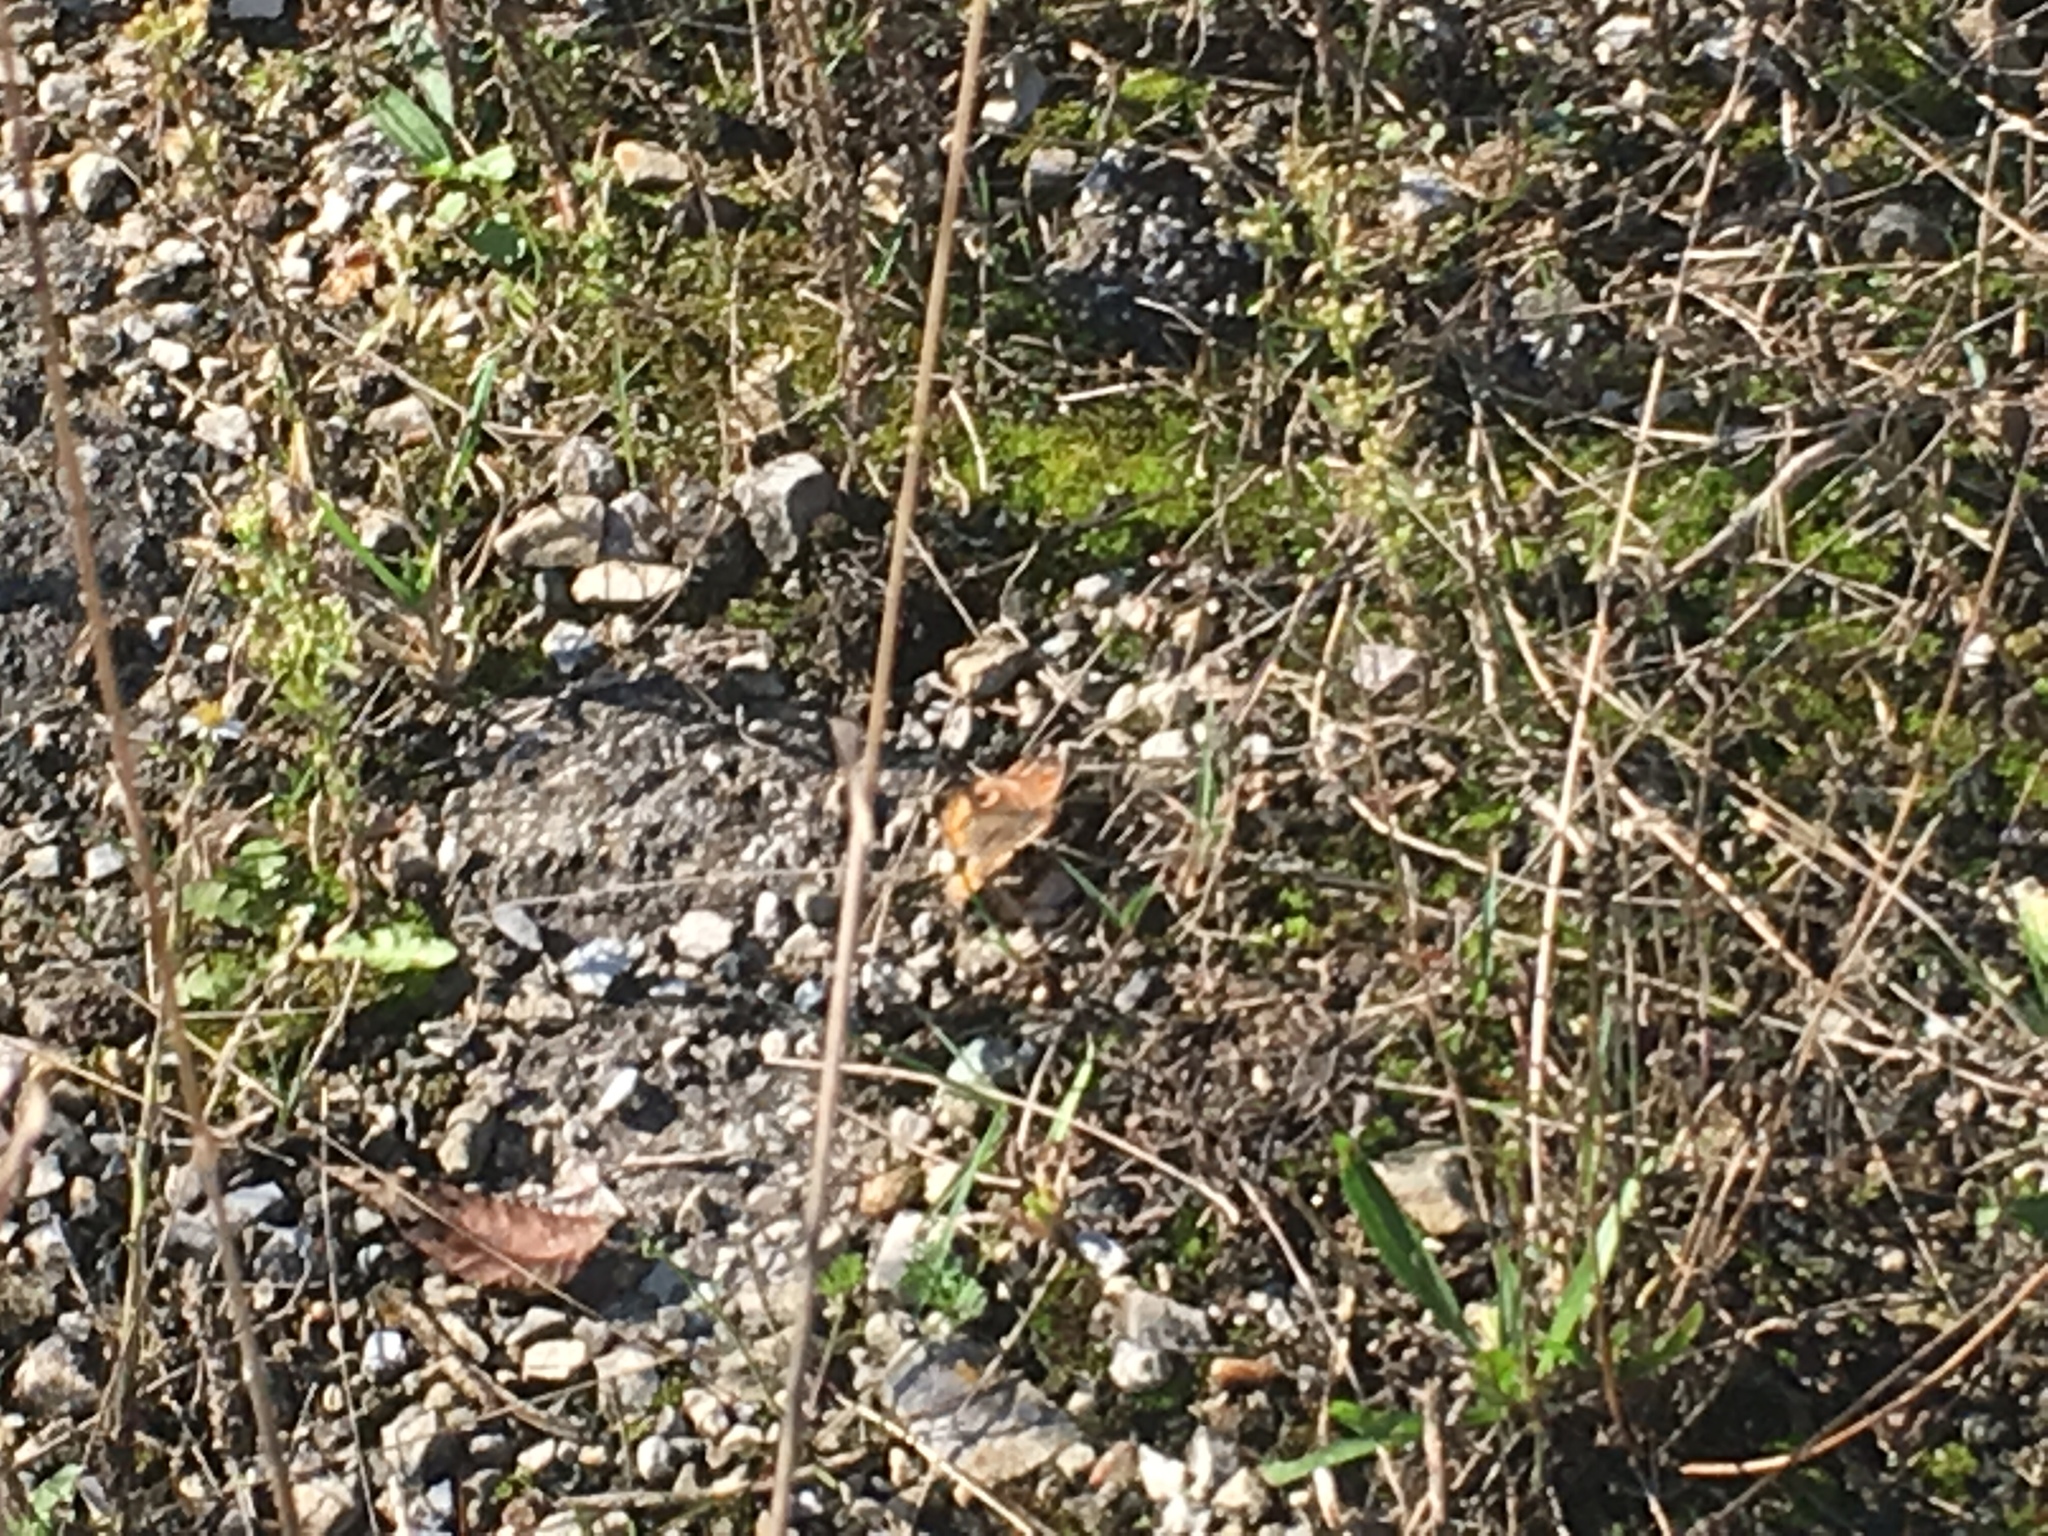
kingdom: Animalia
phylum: Arthropoda
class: Insecta
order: Lepidoptera
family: Nymphalidae
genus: Junonia
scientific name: Junonia coenia
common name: Common buckeye
